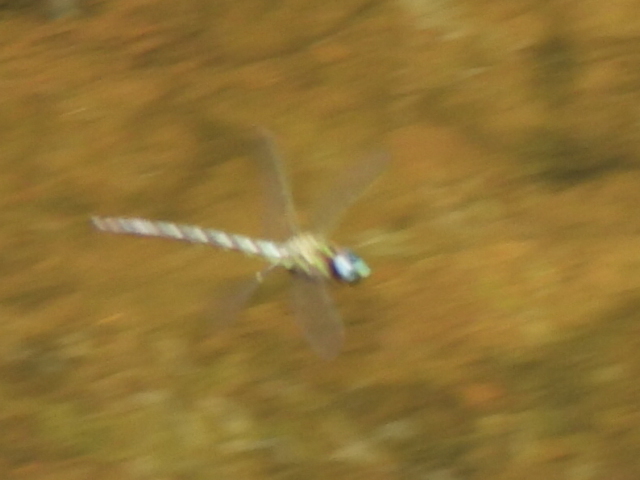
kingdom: Animalia
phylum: Arthropoda
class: Insecta
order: Odonata
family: Aeshnidae
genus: Nasiaeschna
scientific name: Nasiaeschna pentacantha
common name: Cyrano darner
